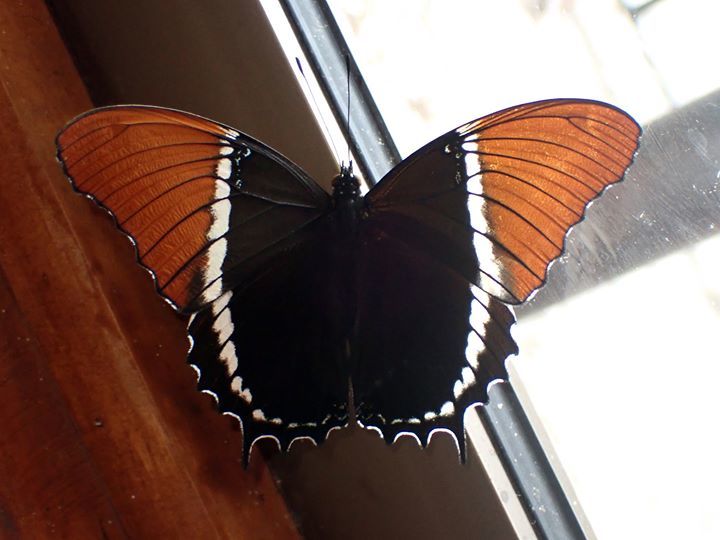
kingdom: Animalia
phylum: Arthropoda
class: Insecta
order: Lepidoptera
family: Nymphalidae
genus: Siproeta
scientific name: Siproeta epaphus
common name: Rusty-tipped page
